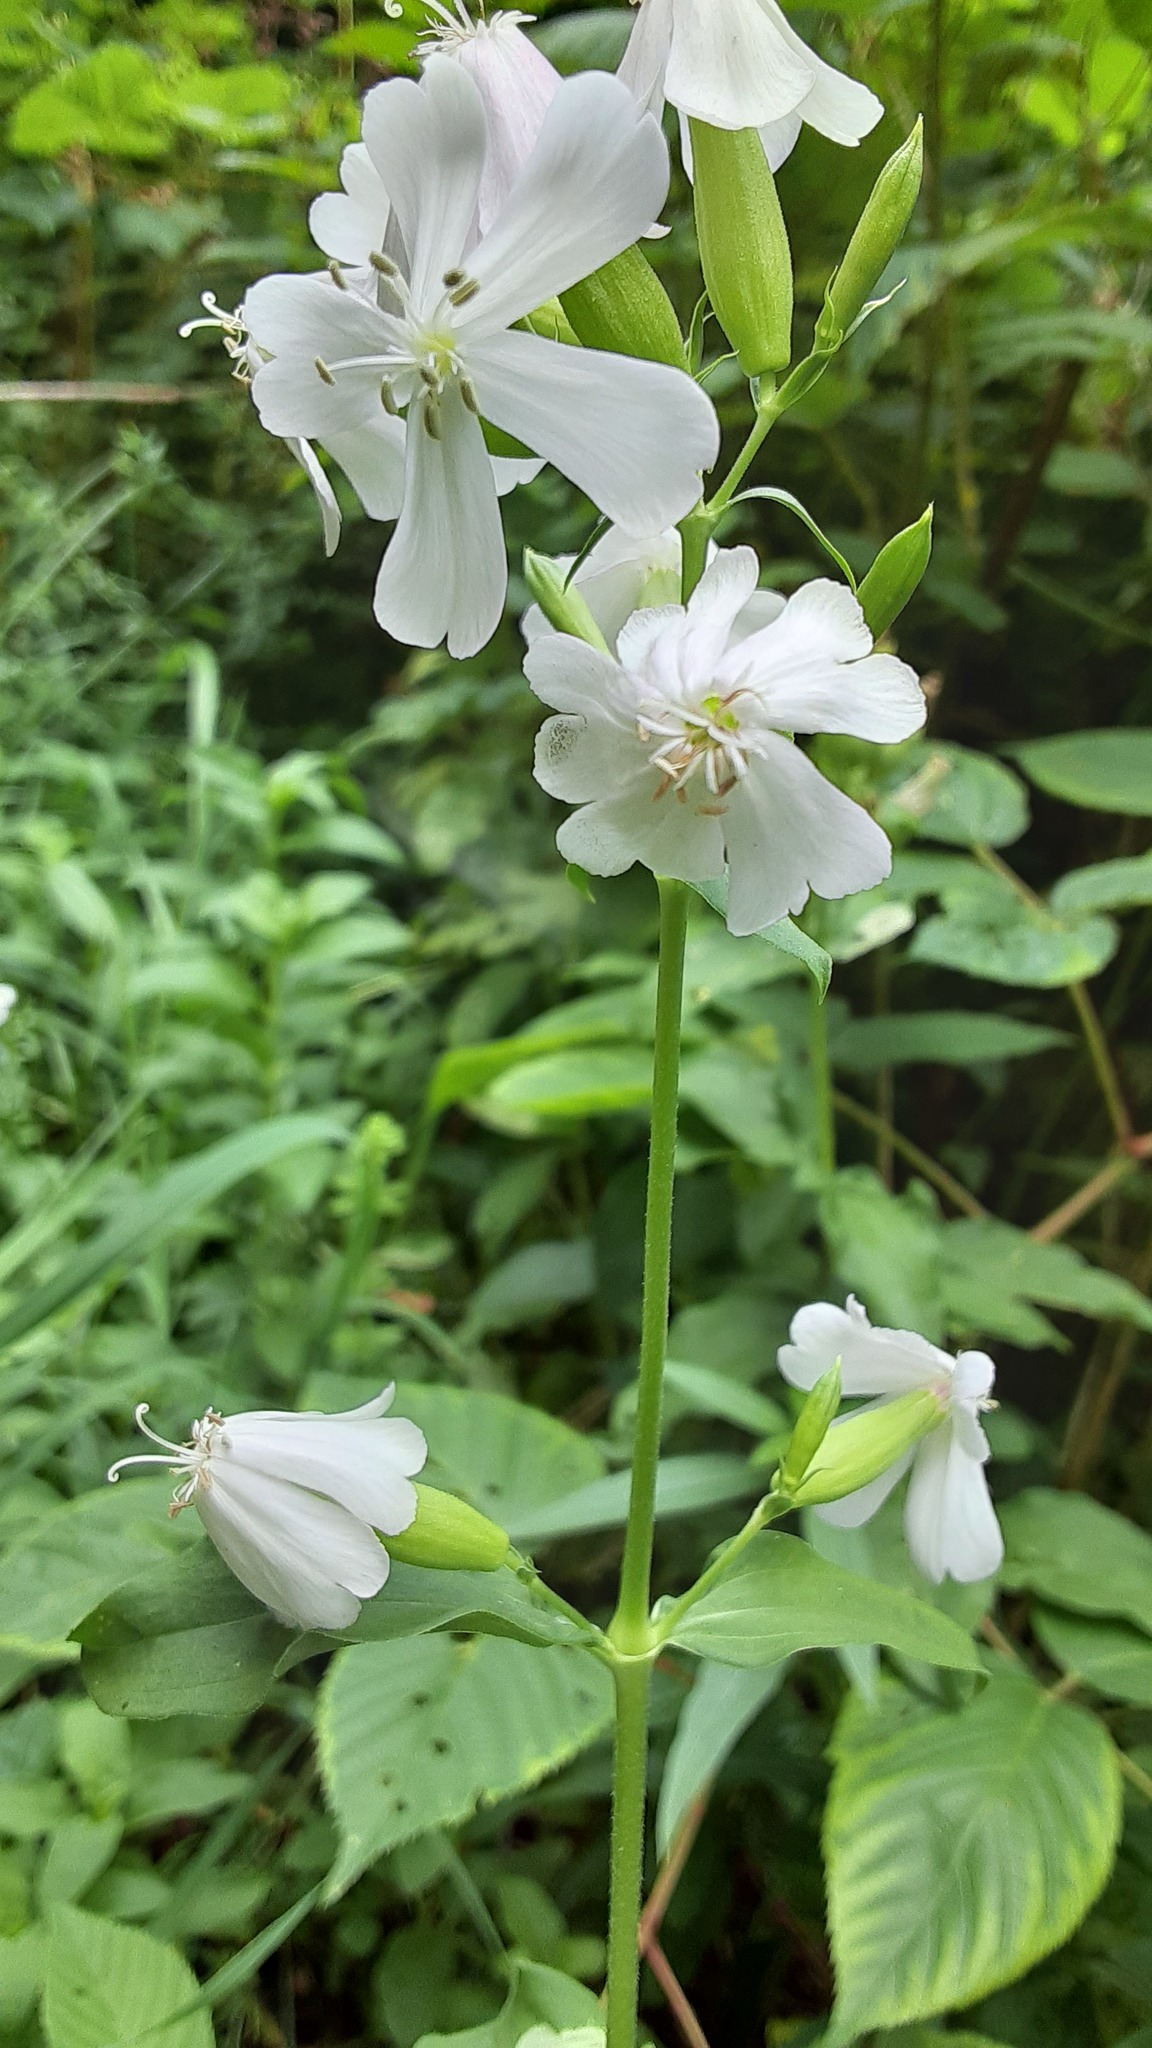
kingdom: Plantae
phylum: Tracheophyta
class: Magnoliopsida
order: Caryophyllales
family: Caryophyllaceae
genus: Saponaria
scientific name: Saponaria officinalis
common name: Soapwort
